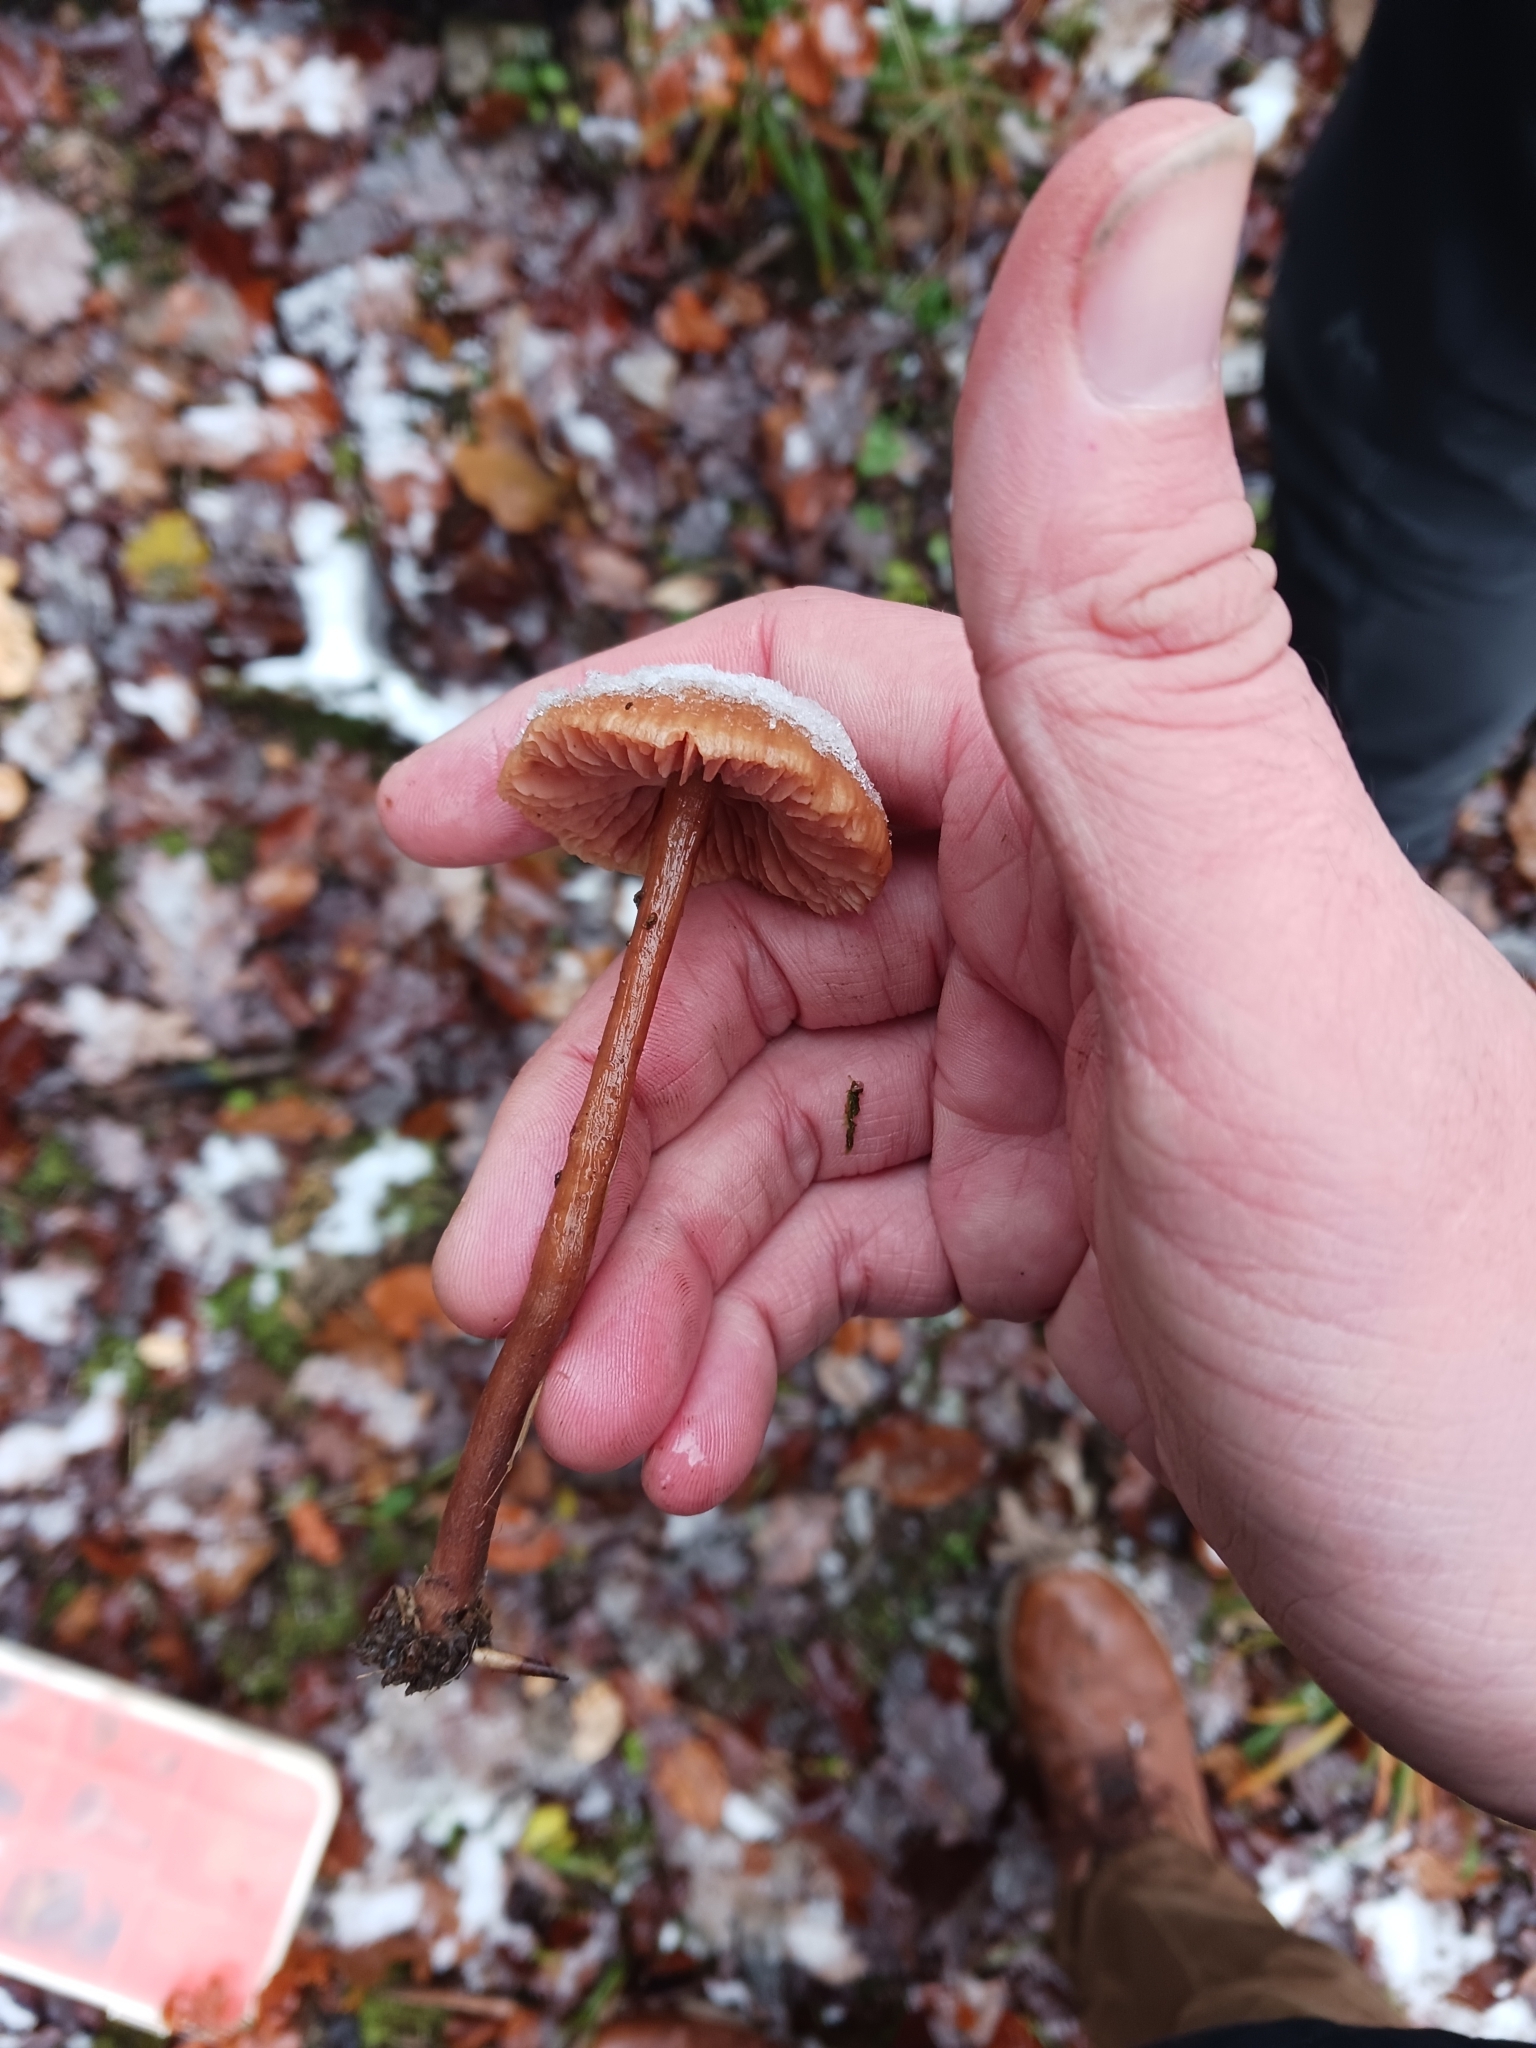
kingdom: Fungi
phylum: Basidiomycota
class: Agaricomycetes
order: Agaricales
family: Hydnangiaceae
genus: Laccaria
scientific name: Laccaria proxima
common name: Scurfy deceiver
